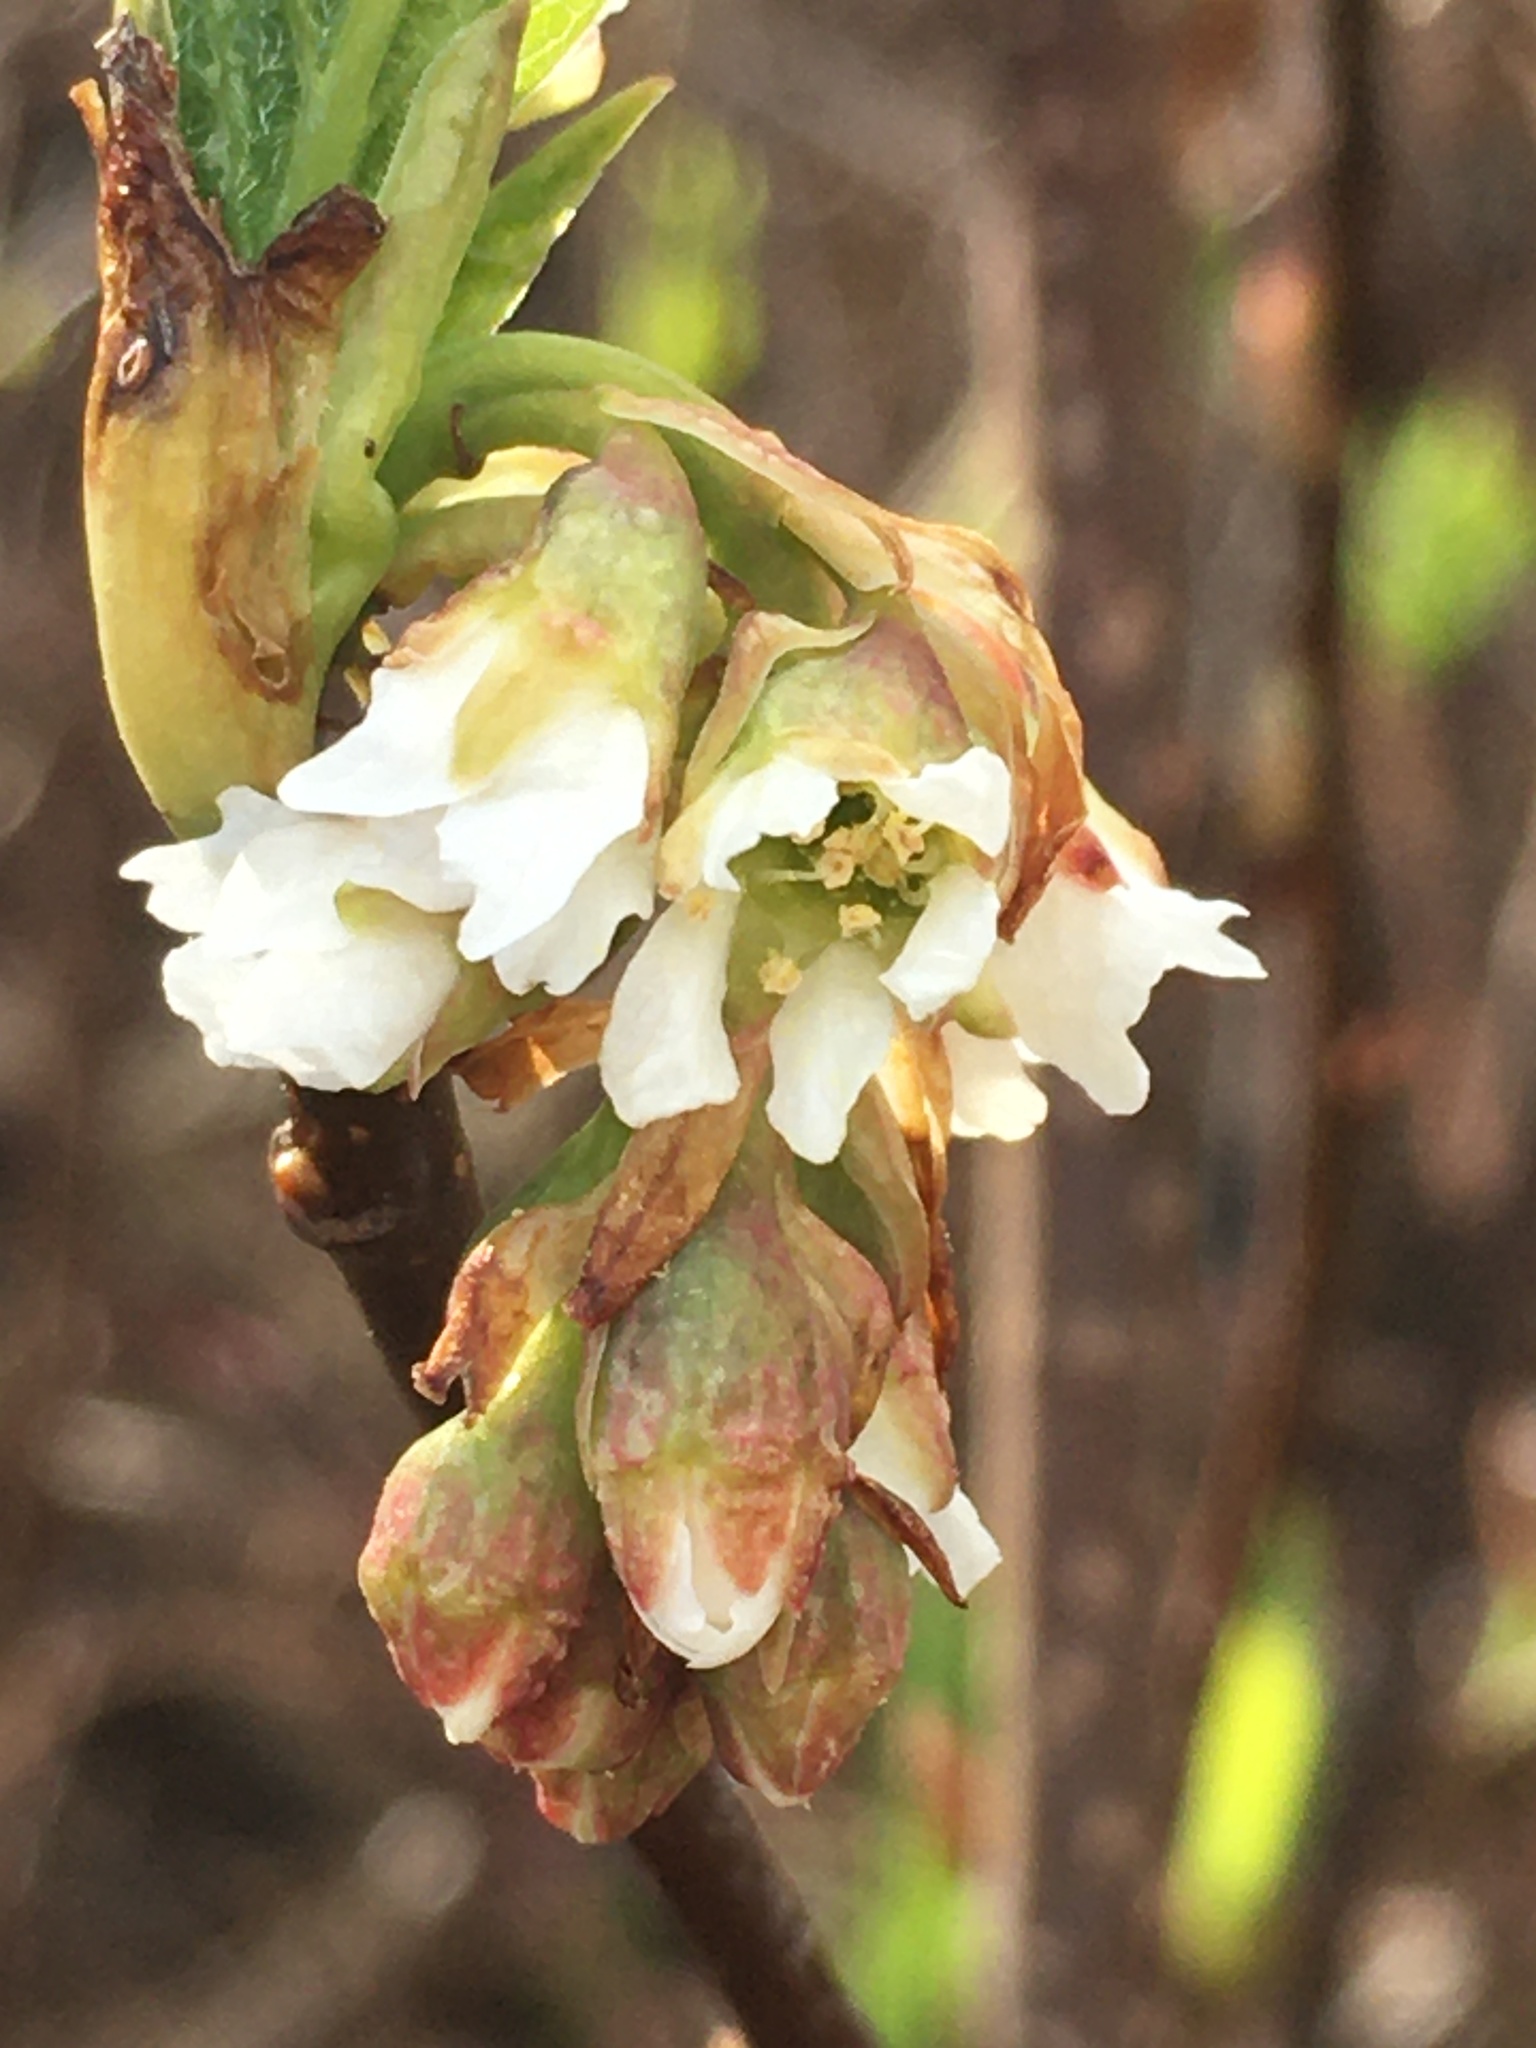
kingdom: Plantae
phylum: Tracheophyta
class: Magnoliopsida
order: Rosales
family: Rosaceae
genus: Oemleria
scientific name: Oemleria cerasiformis
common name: Osoberry
